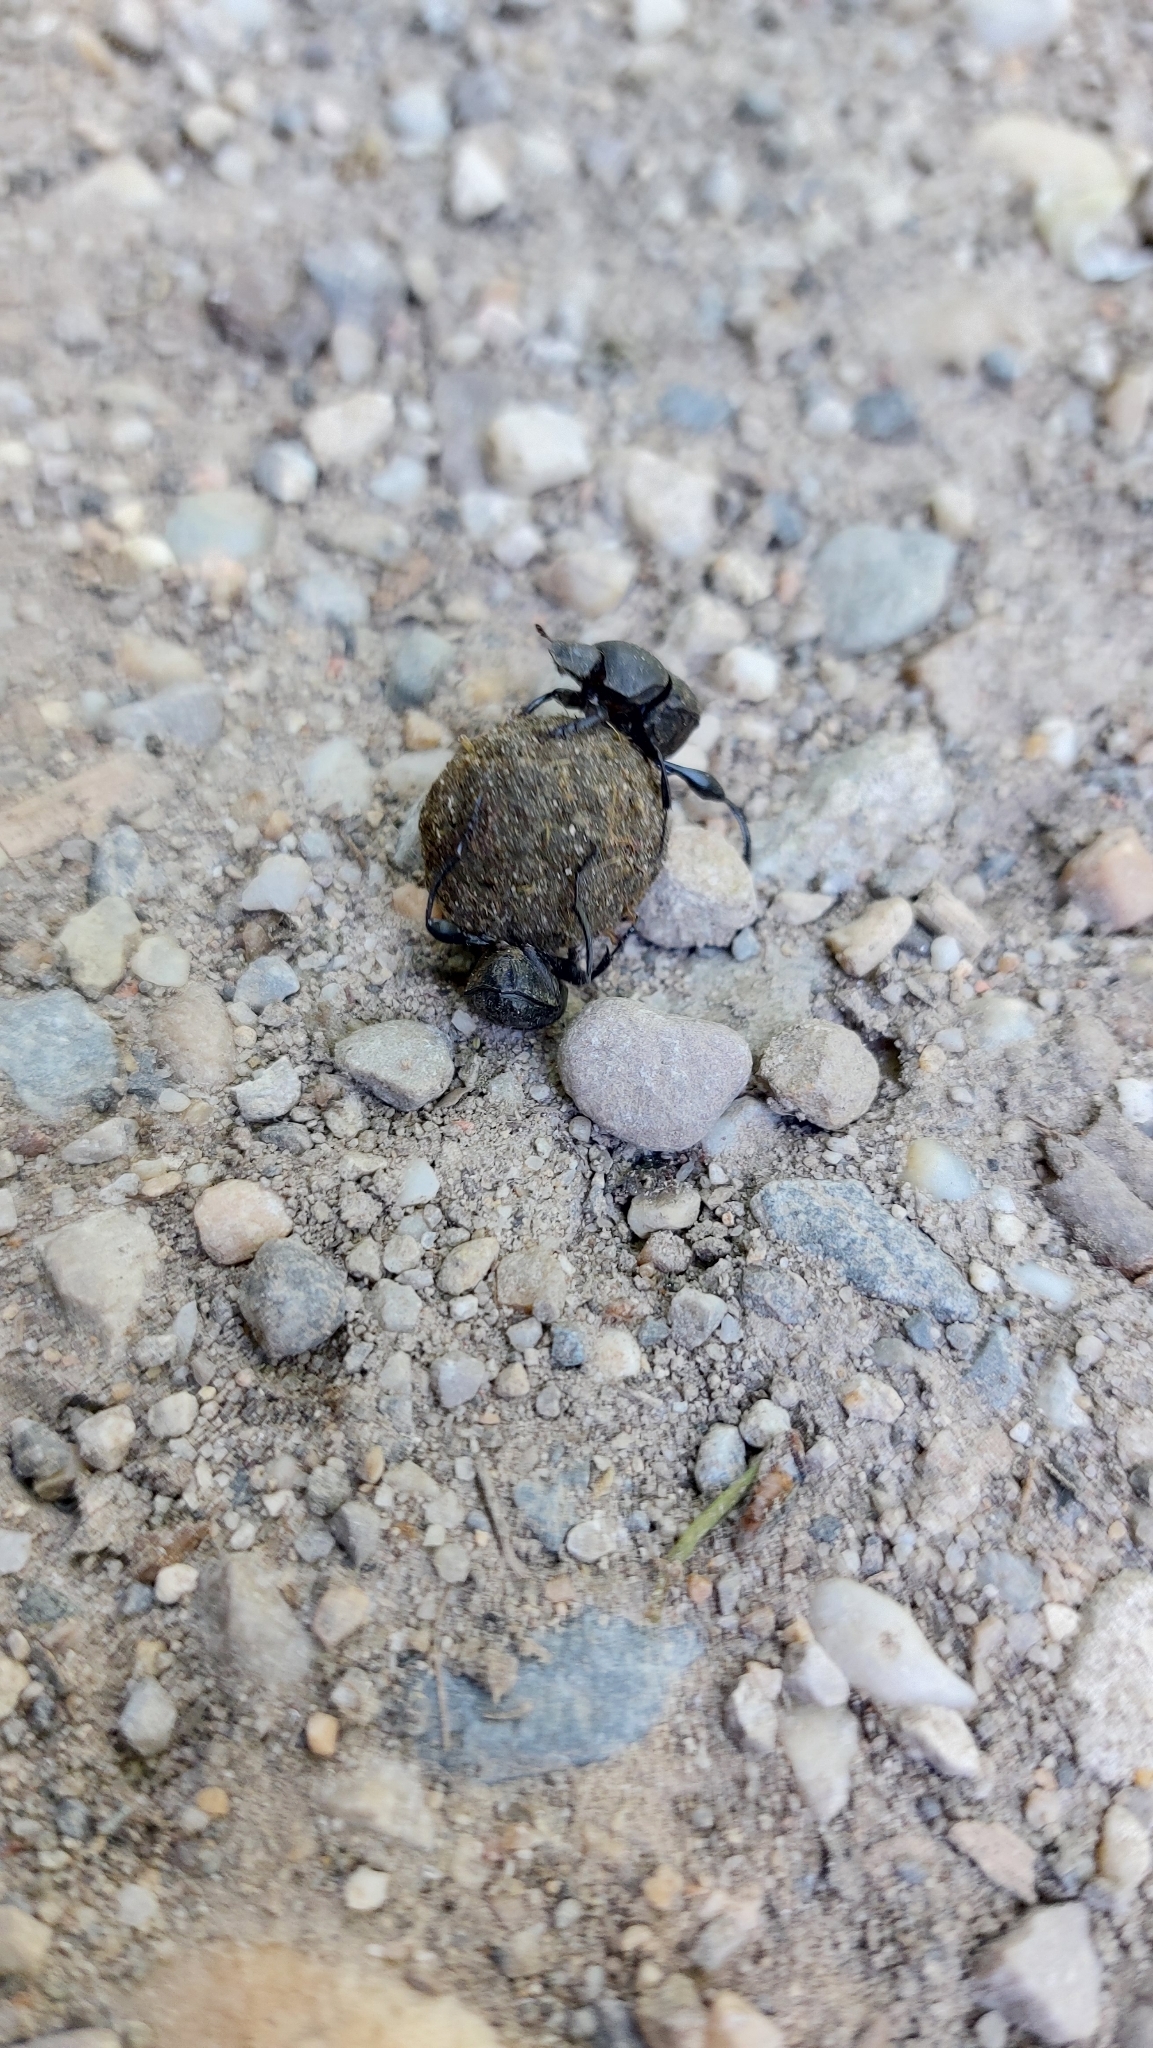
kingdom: Animalia
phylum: Arthropoda
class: Insecta
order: Coleoptera
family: Scarabaeidae
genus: Sisyphus
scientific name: Sisyphus schaefferi
